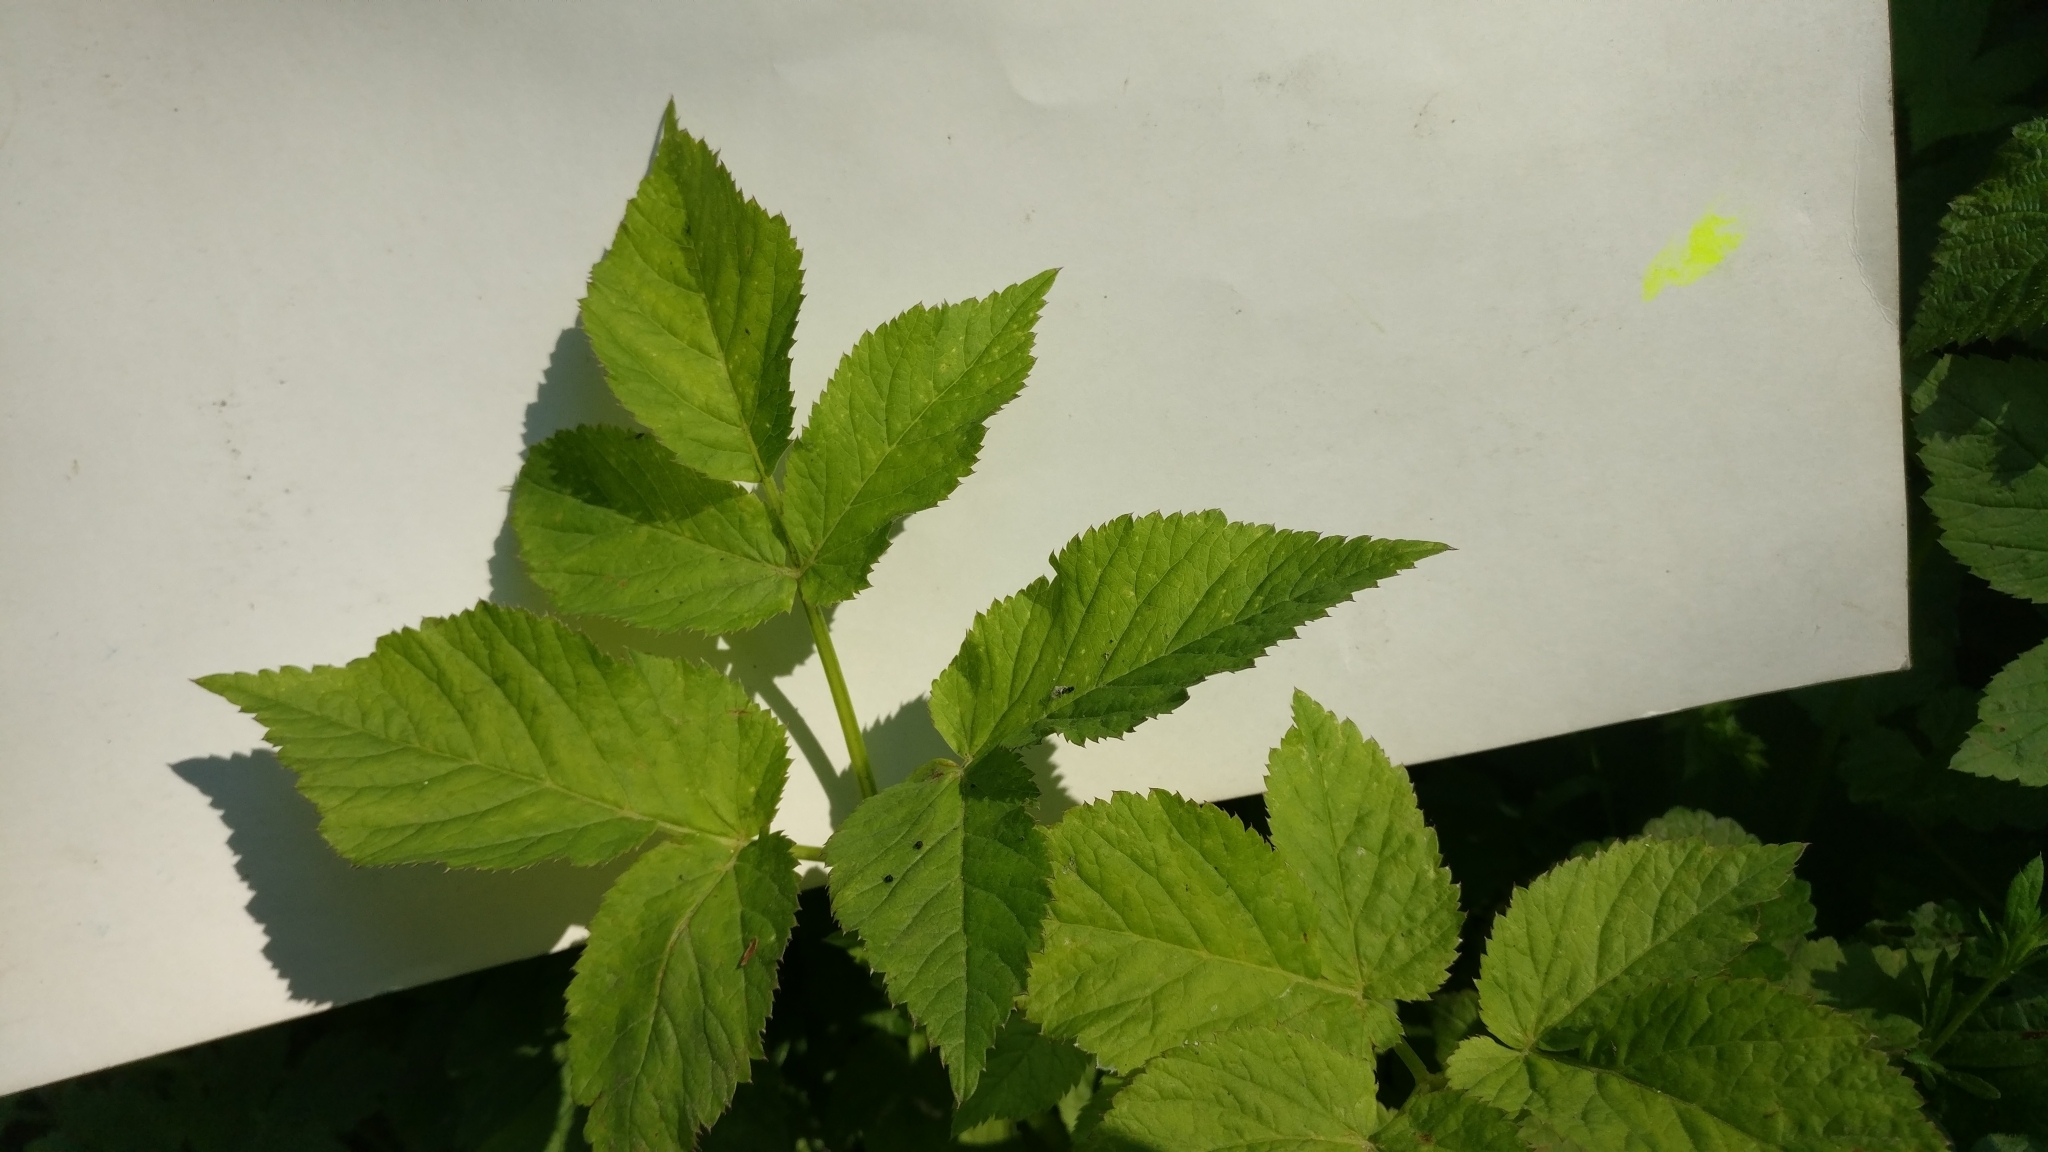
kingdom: Plantae
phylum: Tracheophyta
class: Magnoliopsida
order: Apiales
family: Apiaceae
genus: Aegopodium
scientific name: Aegopodium podagraria
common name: Ground-elder
